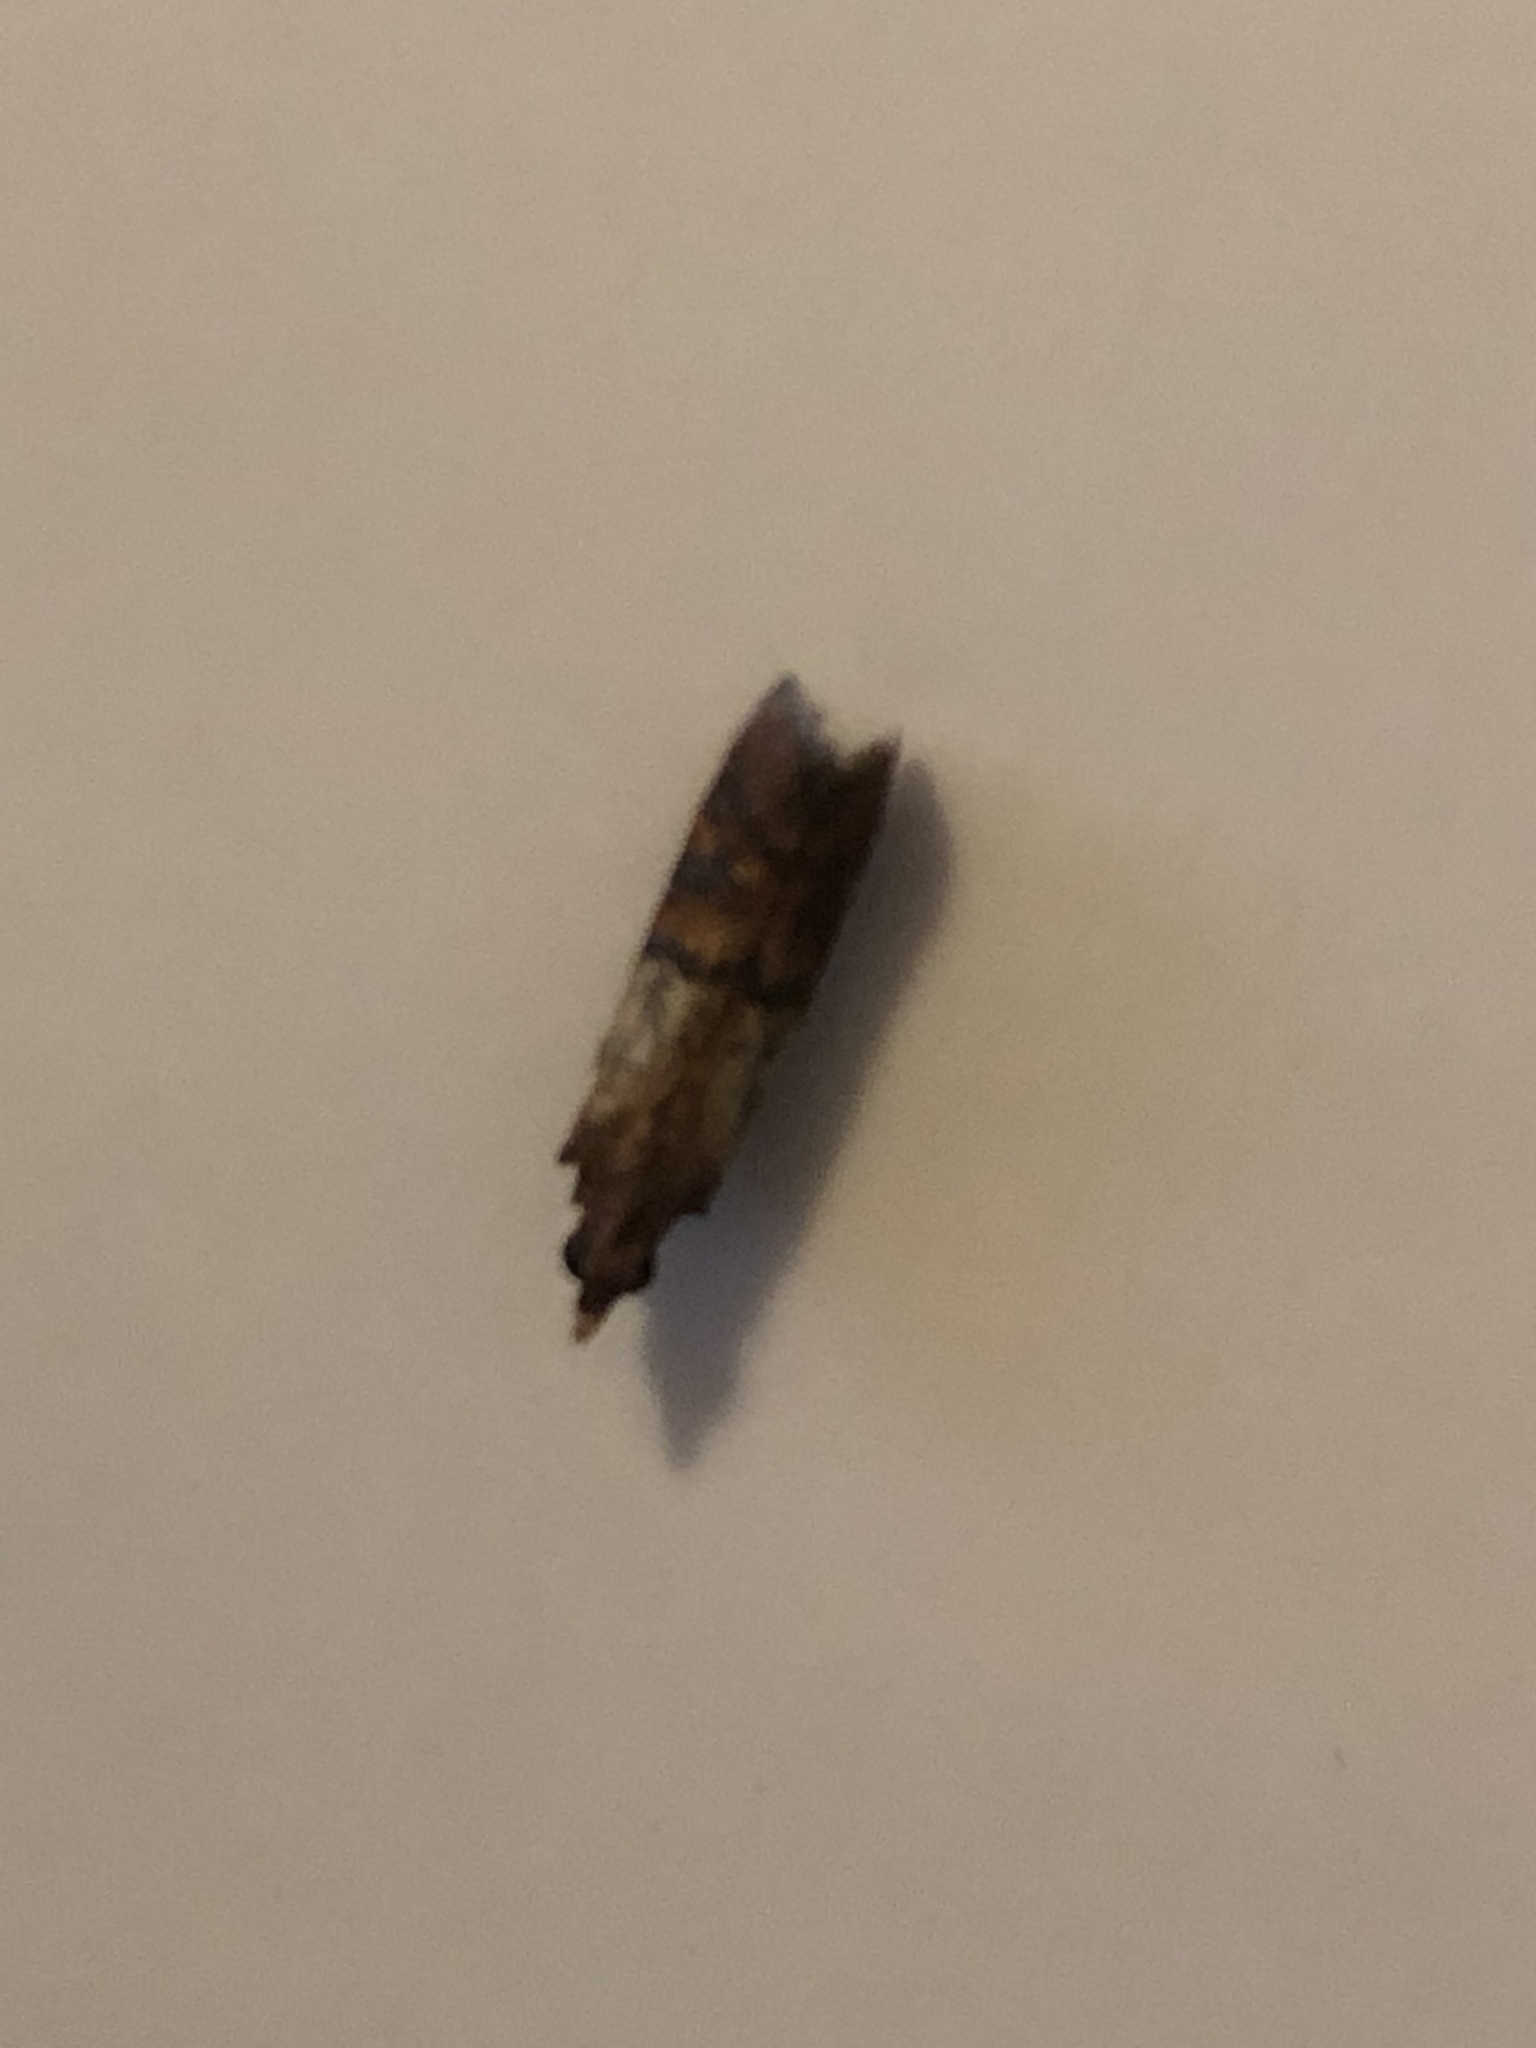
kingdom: Animalia
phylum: Arthropoda
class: Insecta
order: Lepidoptera
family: Pyralidae
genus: Plodia
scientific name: Plodia interpunctella
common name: Indian meal moth
